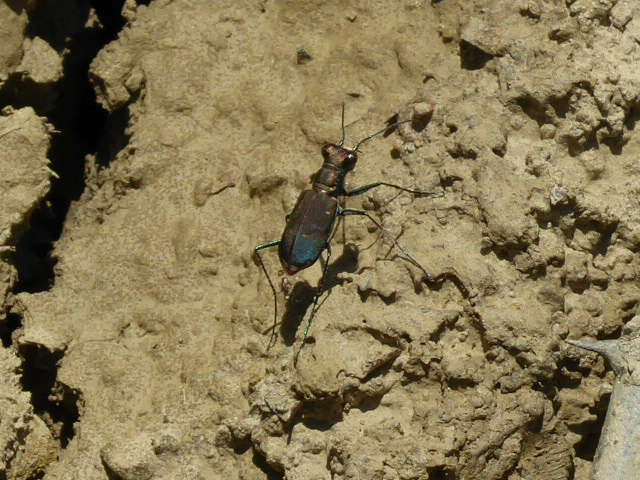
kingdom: Animalia
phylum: Arthropoda
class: Insecta
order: Coleoptera
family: Carabidae
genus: Cicindela
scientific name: Cicindela rufiventris
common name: Eastern red-bellied tiger beetle
